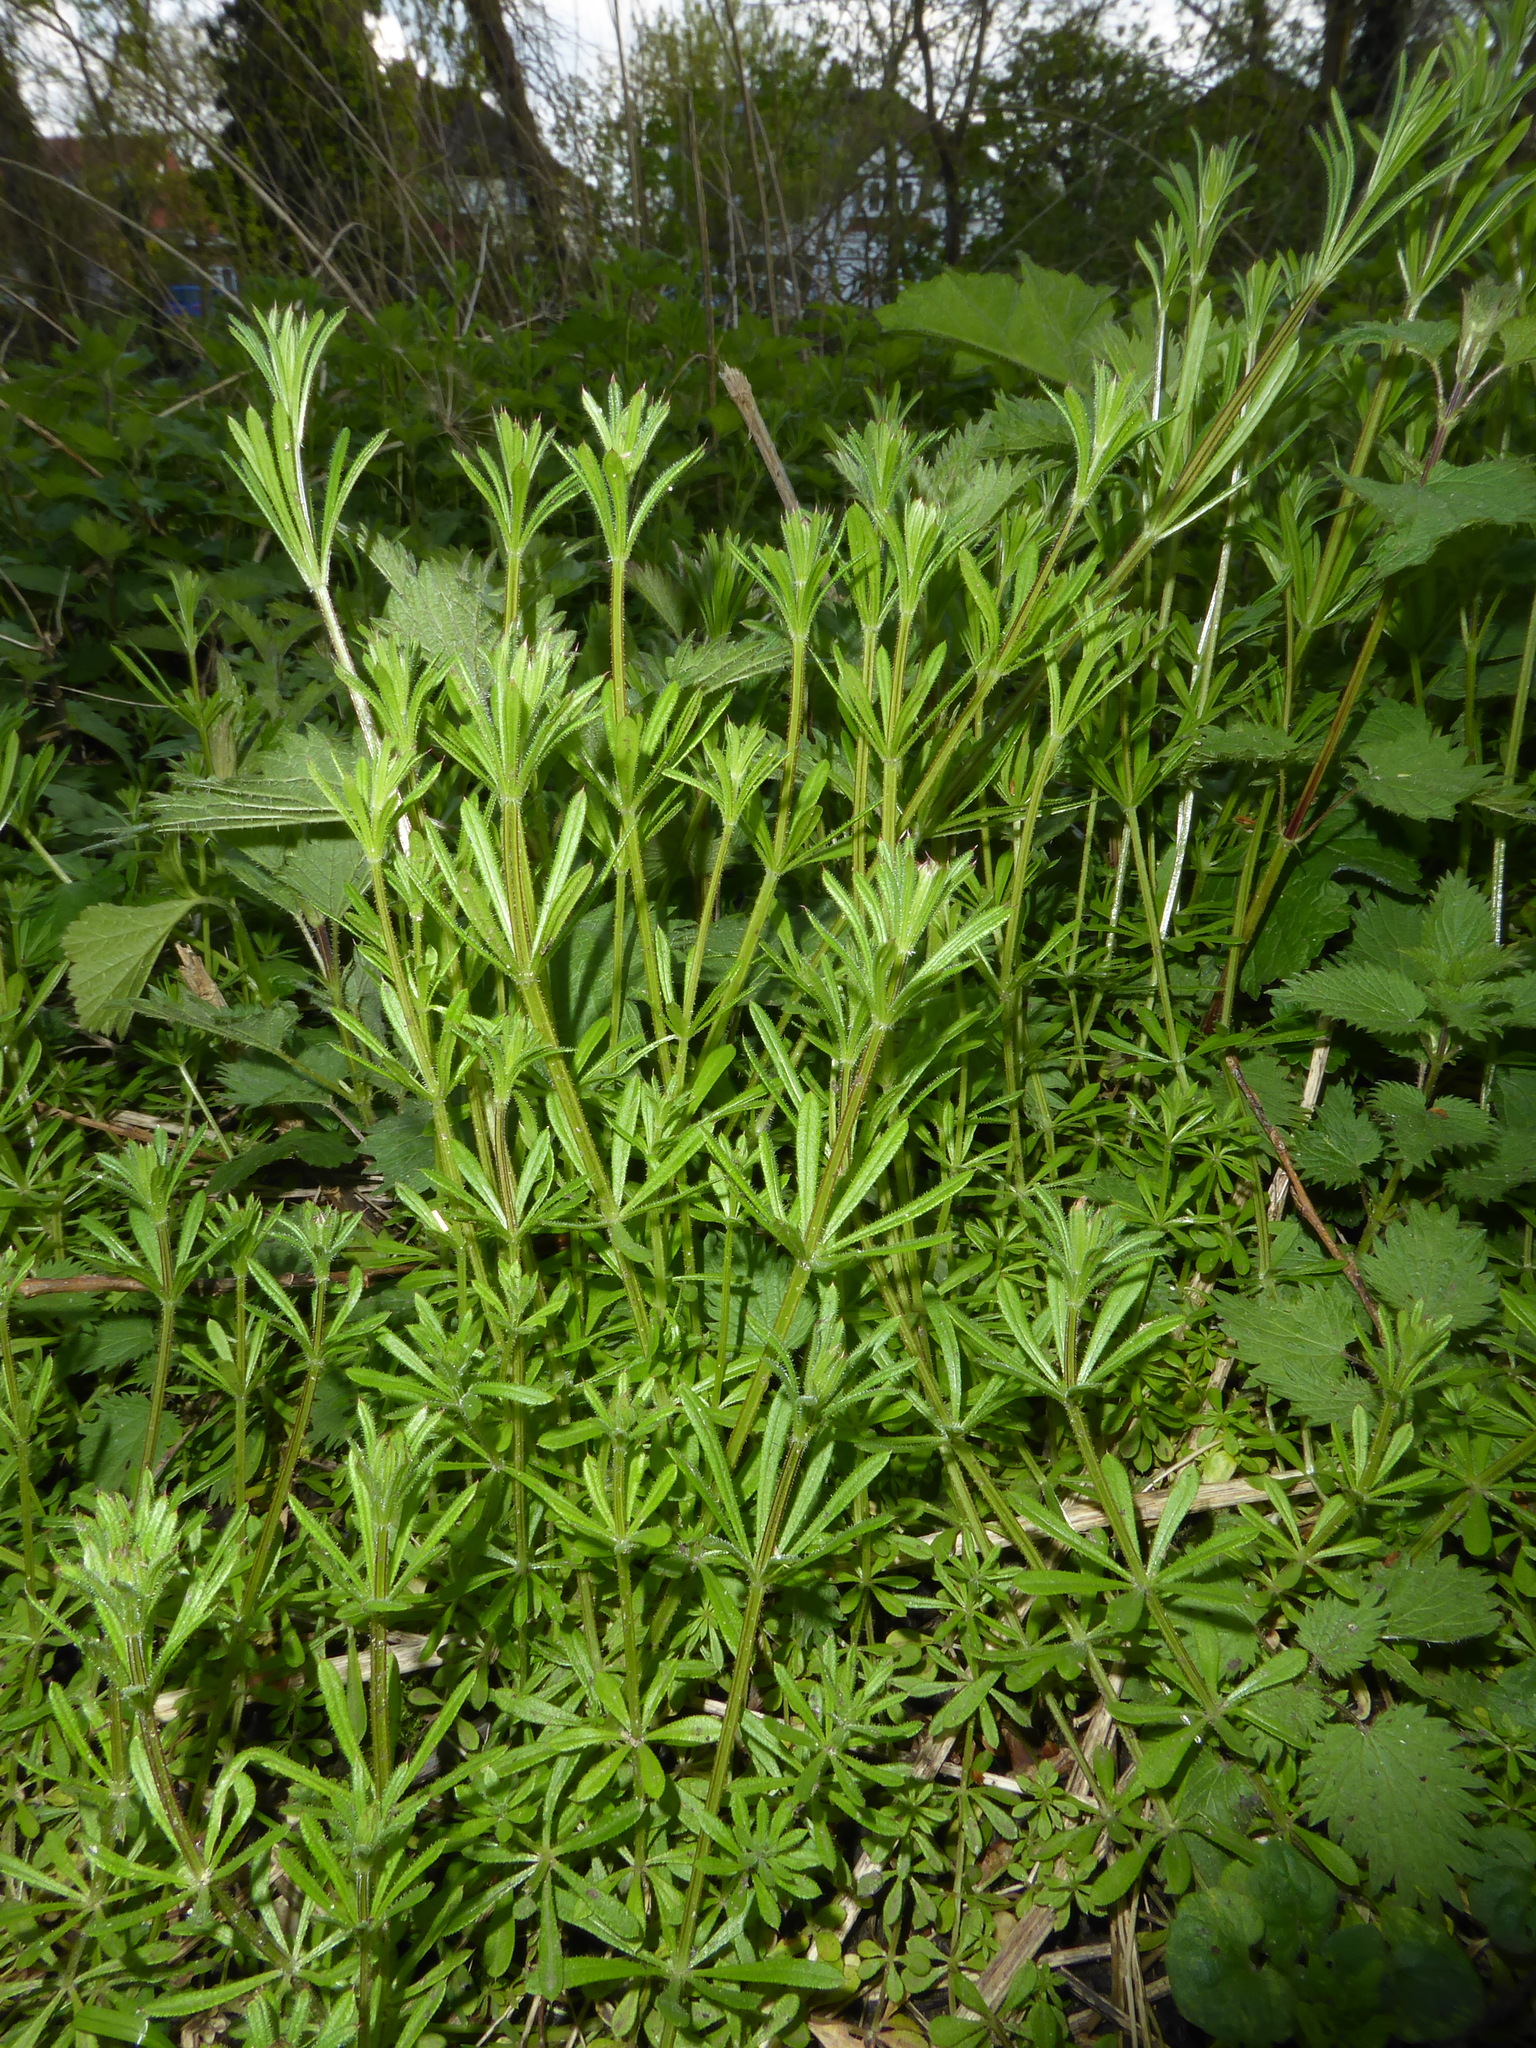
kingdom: Plantae
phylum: Tracheophyta
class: Magnoliopsida
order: Gentianales
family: Rubiaceae
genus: Galium
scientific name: Galium aparine
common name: Cleavers
